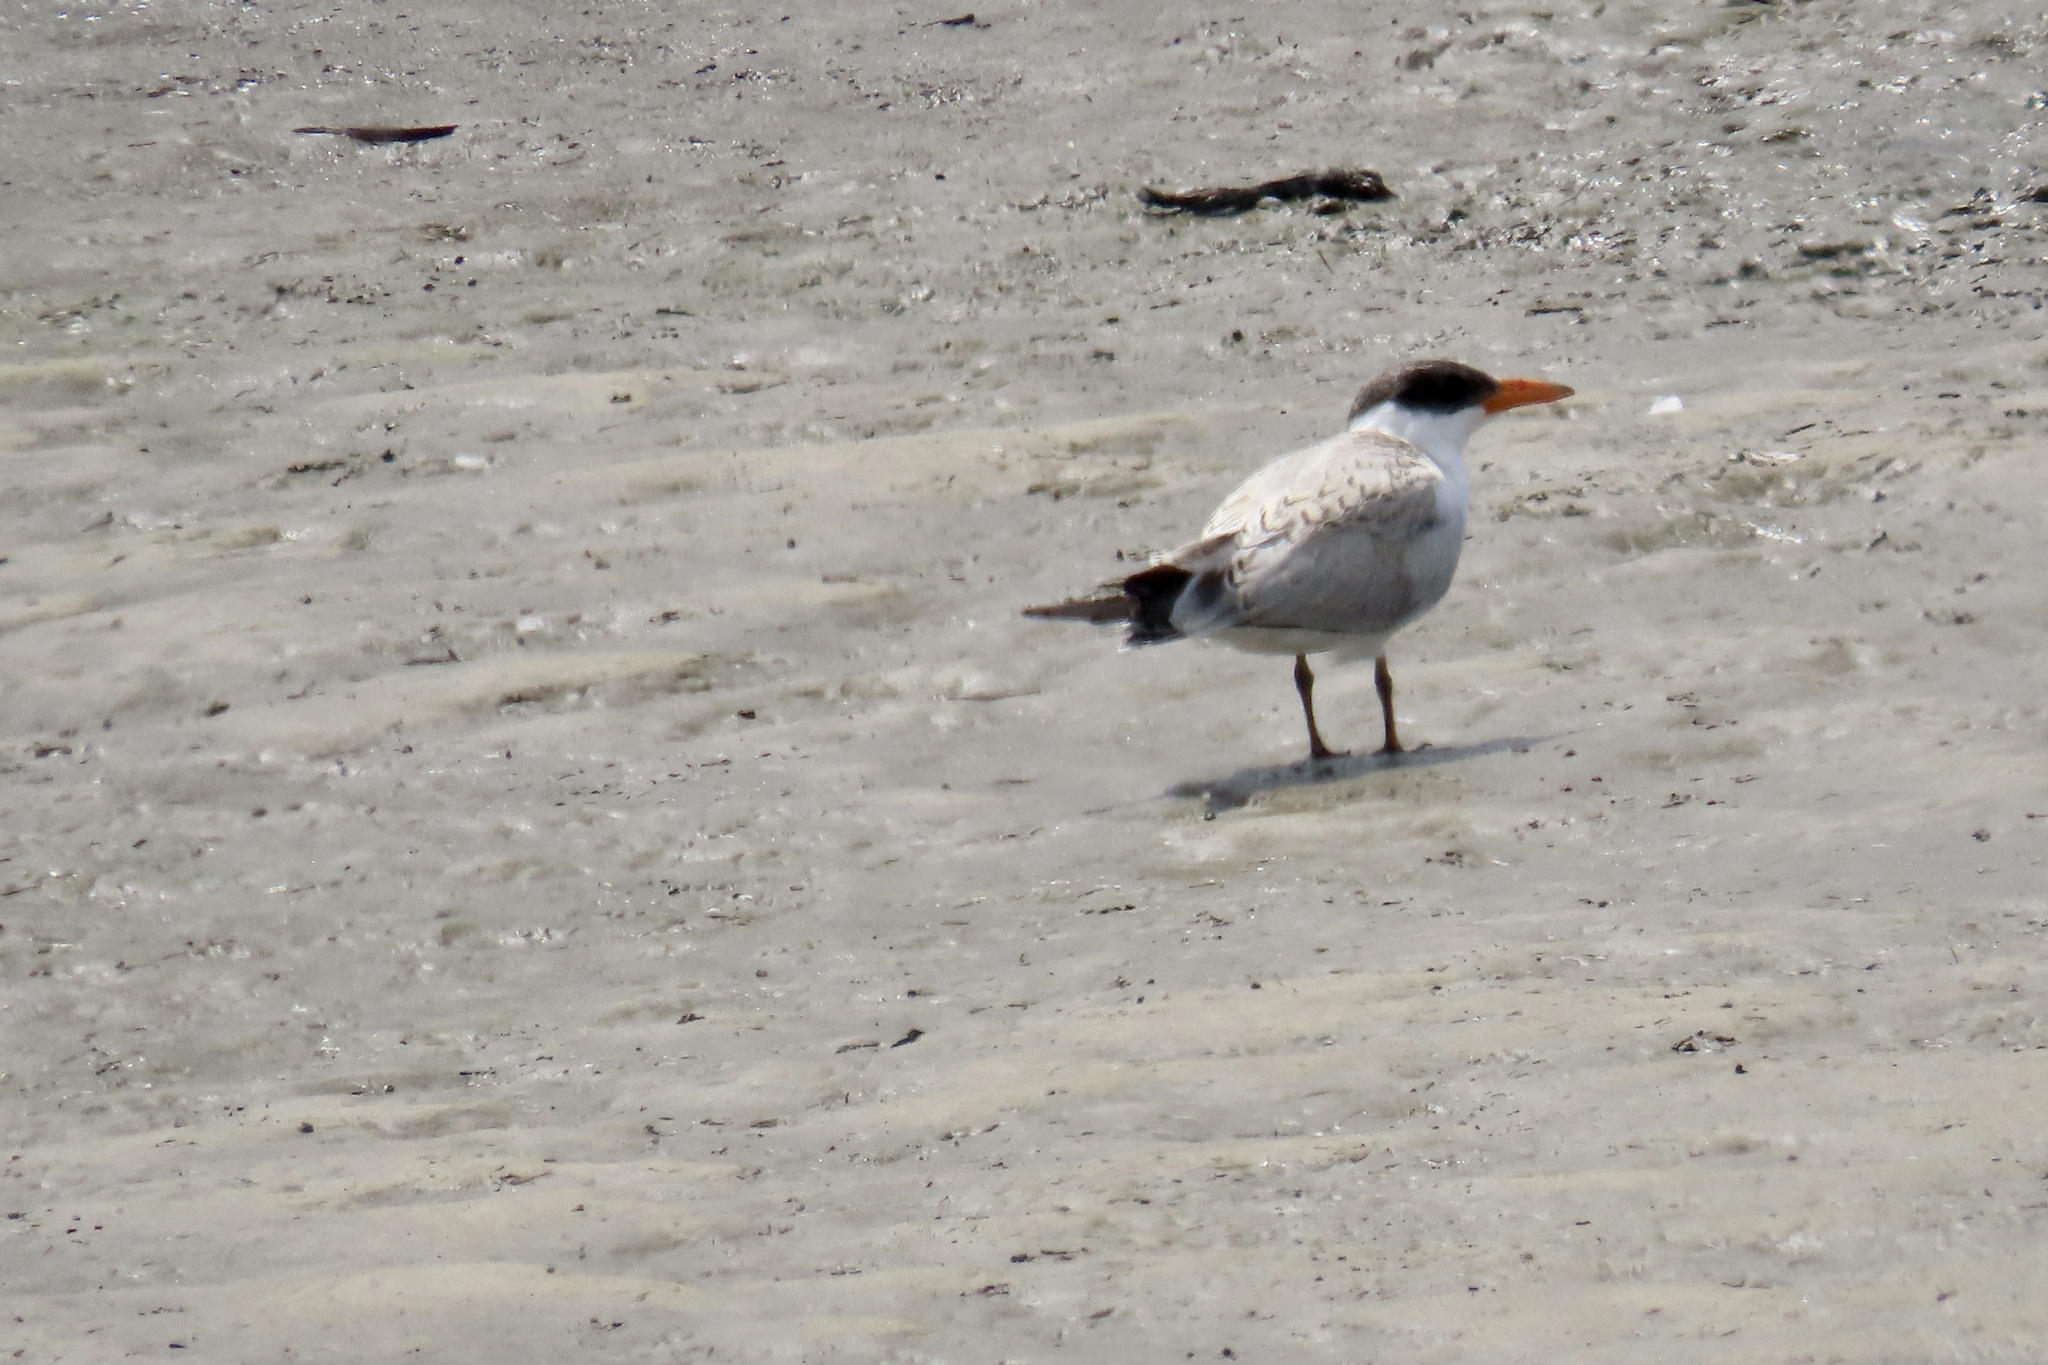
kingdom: Animalia
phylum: Chordata
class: Aves
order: Charadriiformes
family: Laridae
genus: Hydroprogne
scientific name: Hydroprogne caspia
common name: Caspian tern
